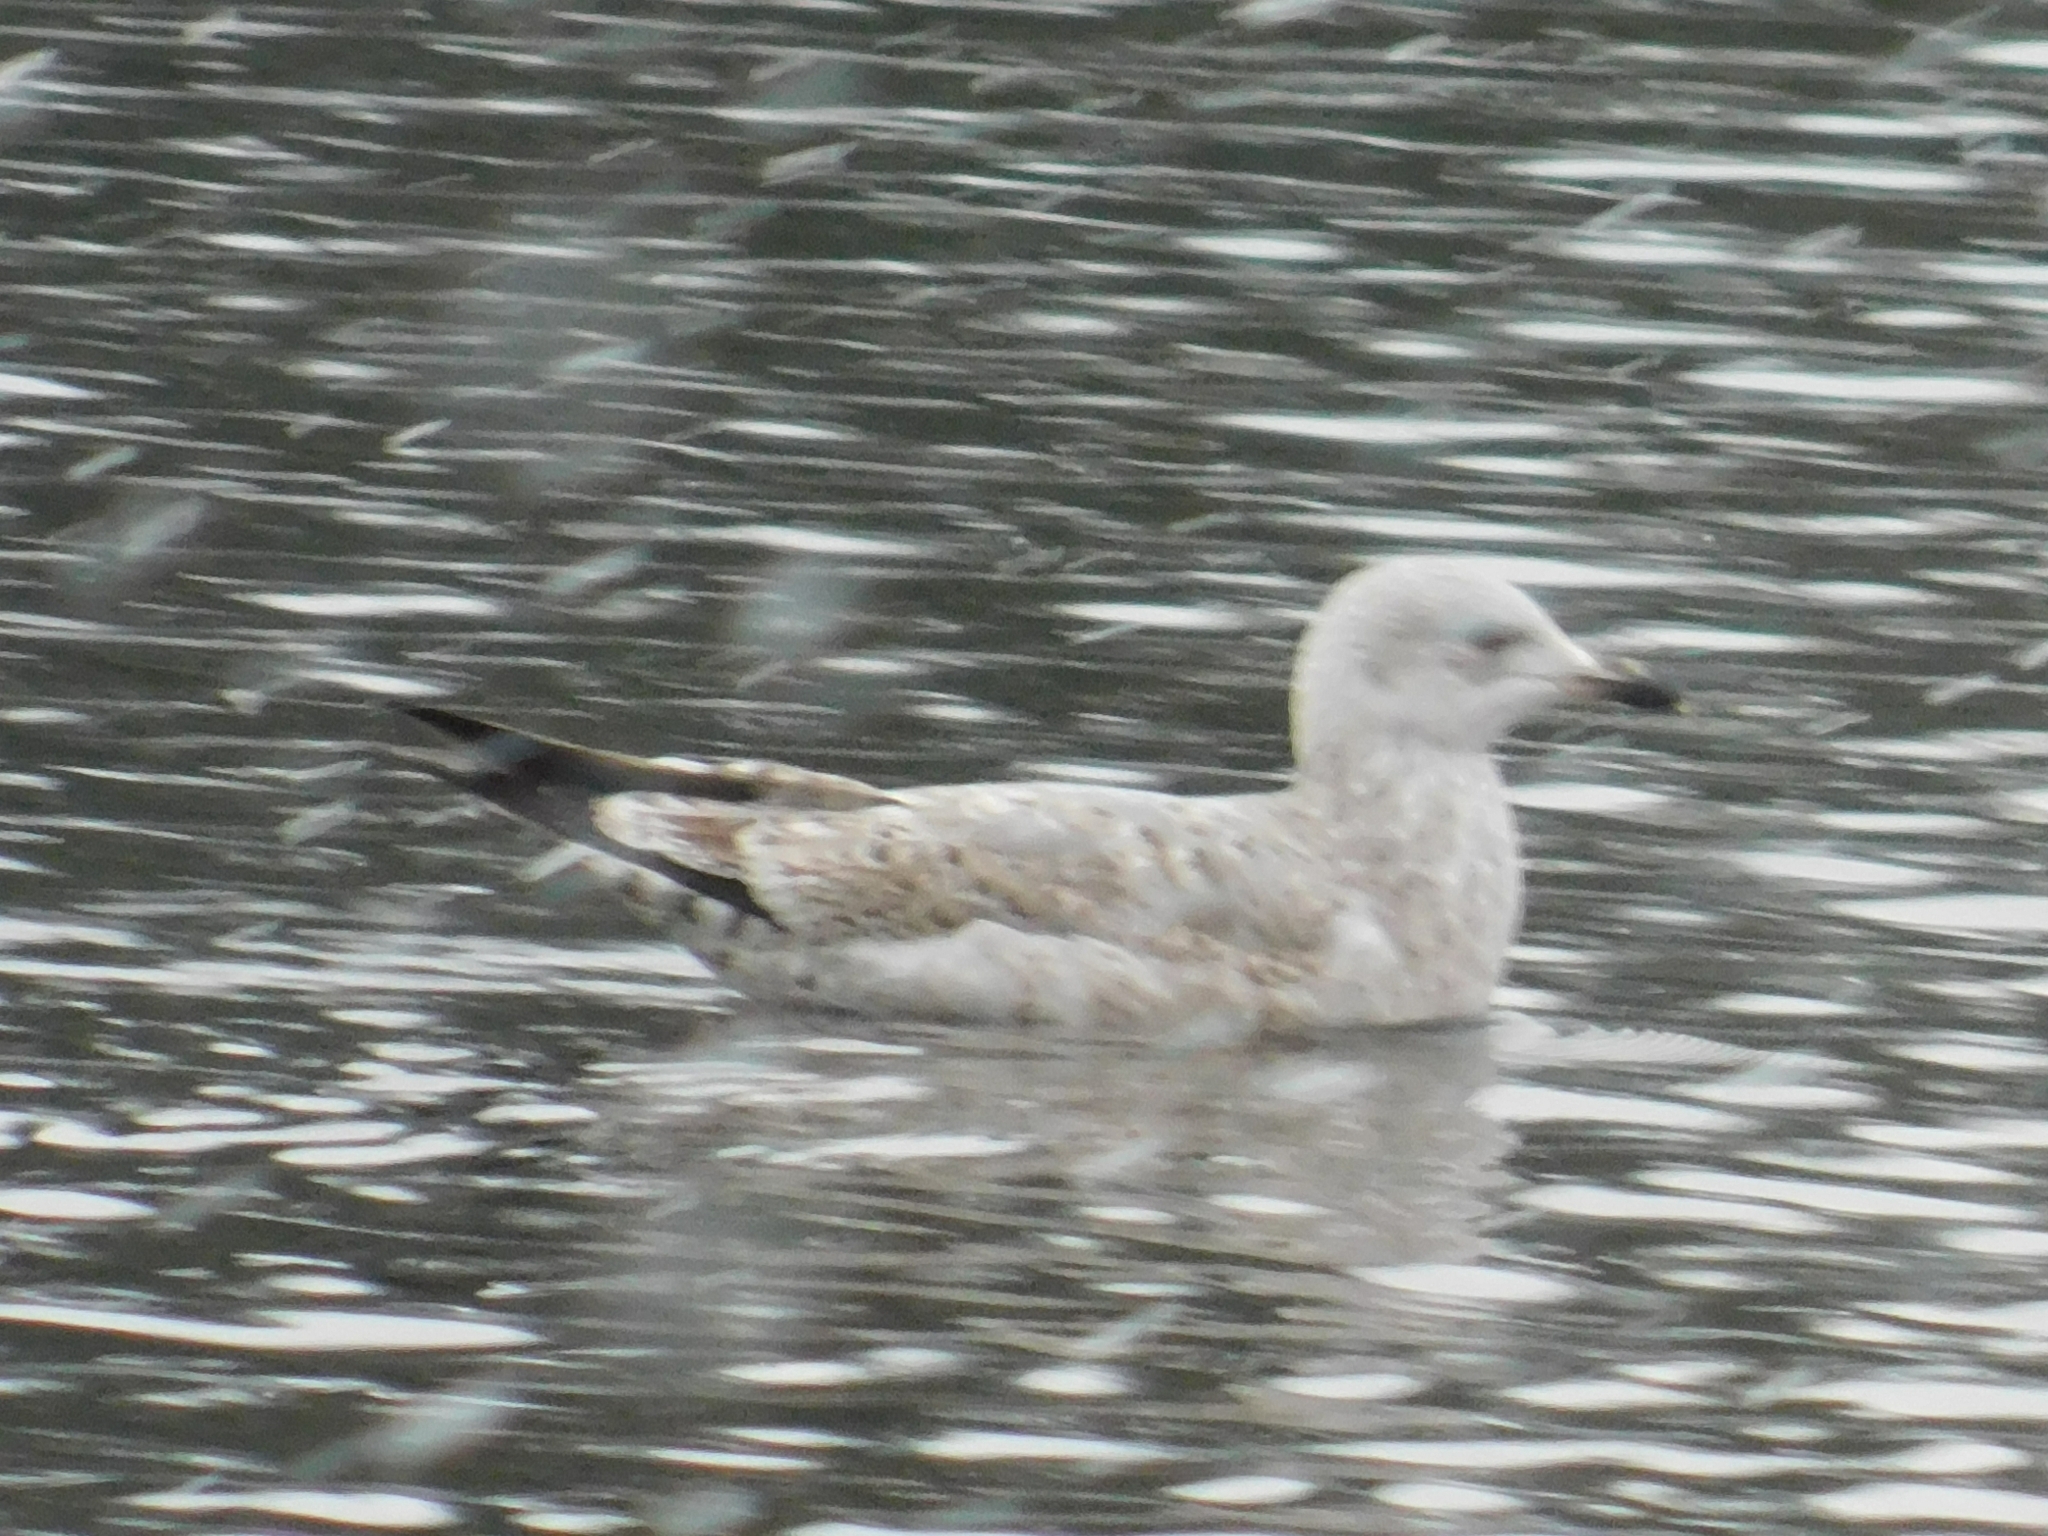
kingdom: Animalia
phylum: Chordata
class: Aves
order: Charadriiformes
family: Laridae
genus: Larus
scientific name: Larus argentatus
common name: Herring gull
